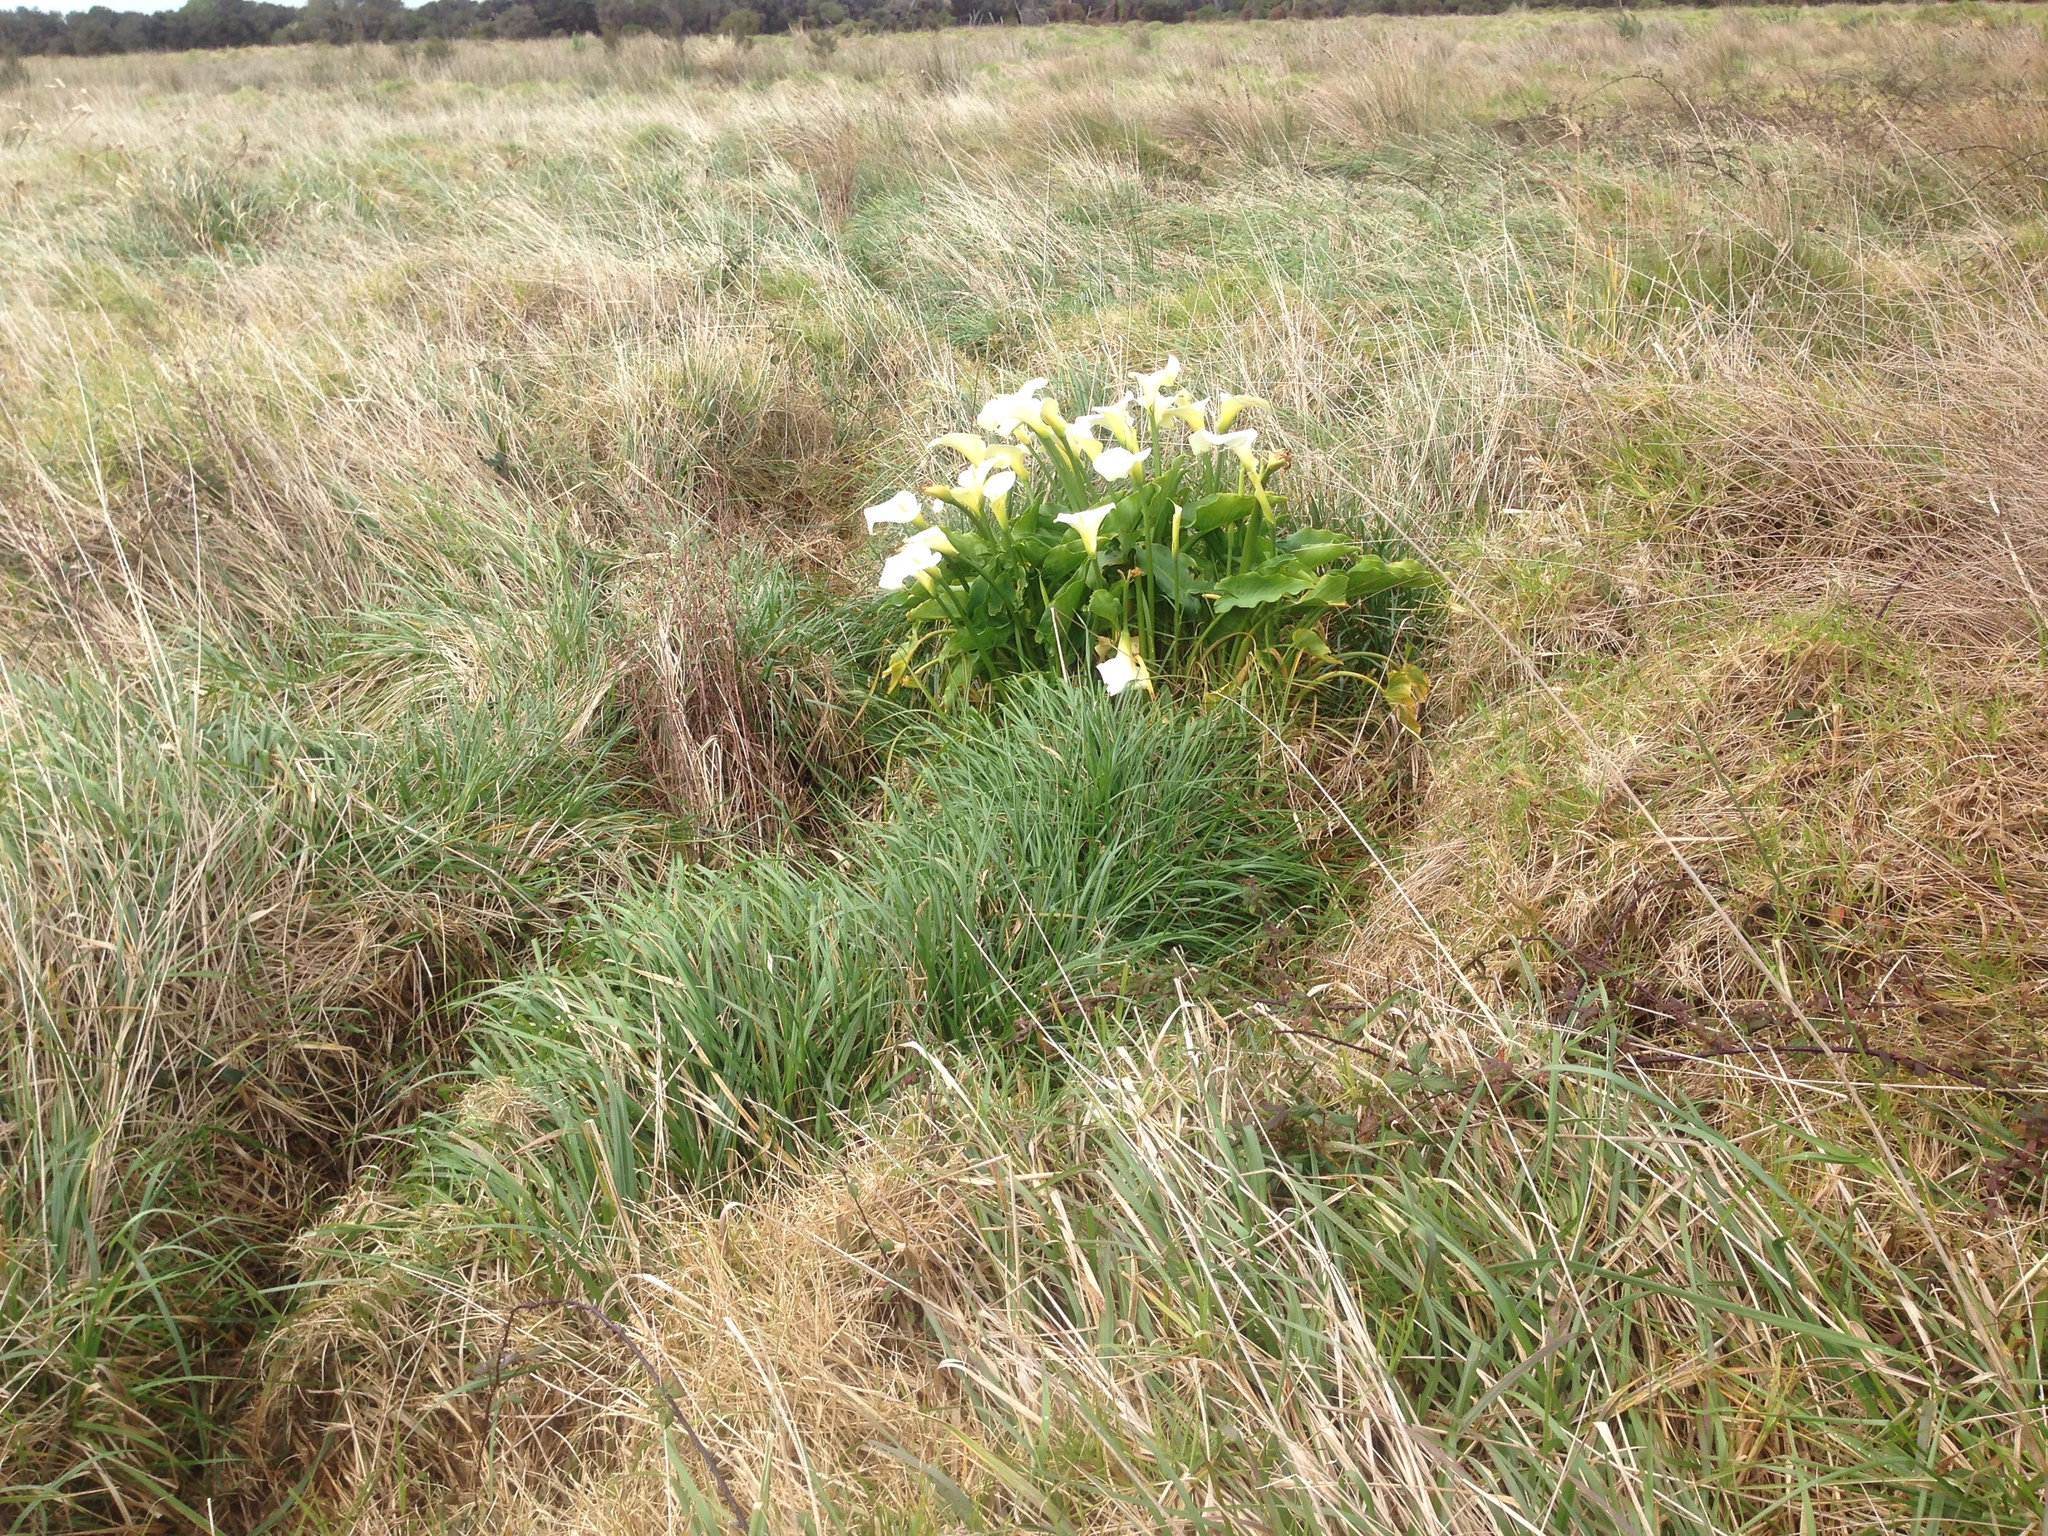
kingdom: Plantae
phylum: Tracheophyta
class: Liliopsida
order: Alismatales
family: Araceae
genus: Zantedeschia
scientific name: Zantedeschia aethiopica
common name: Altar-lily
